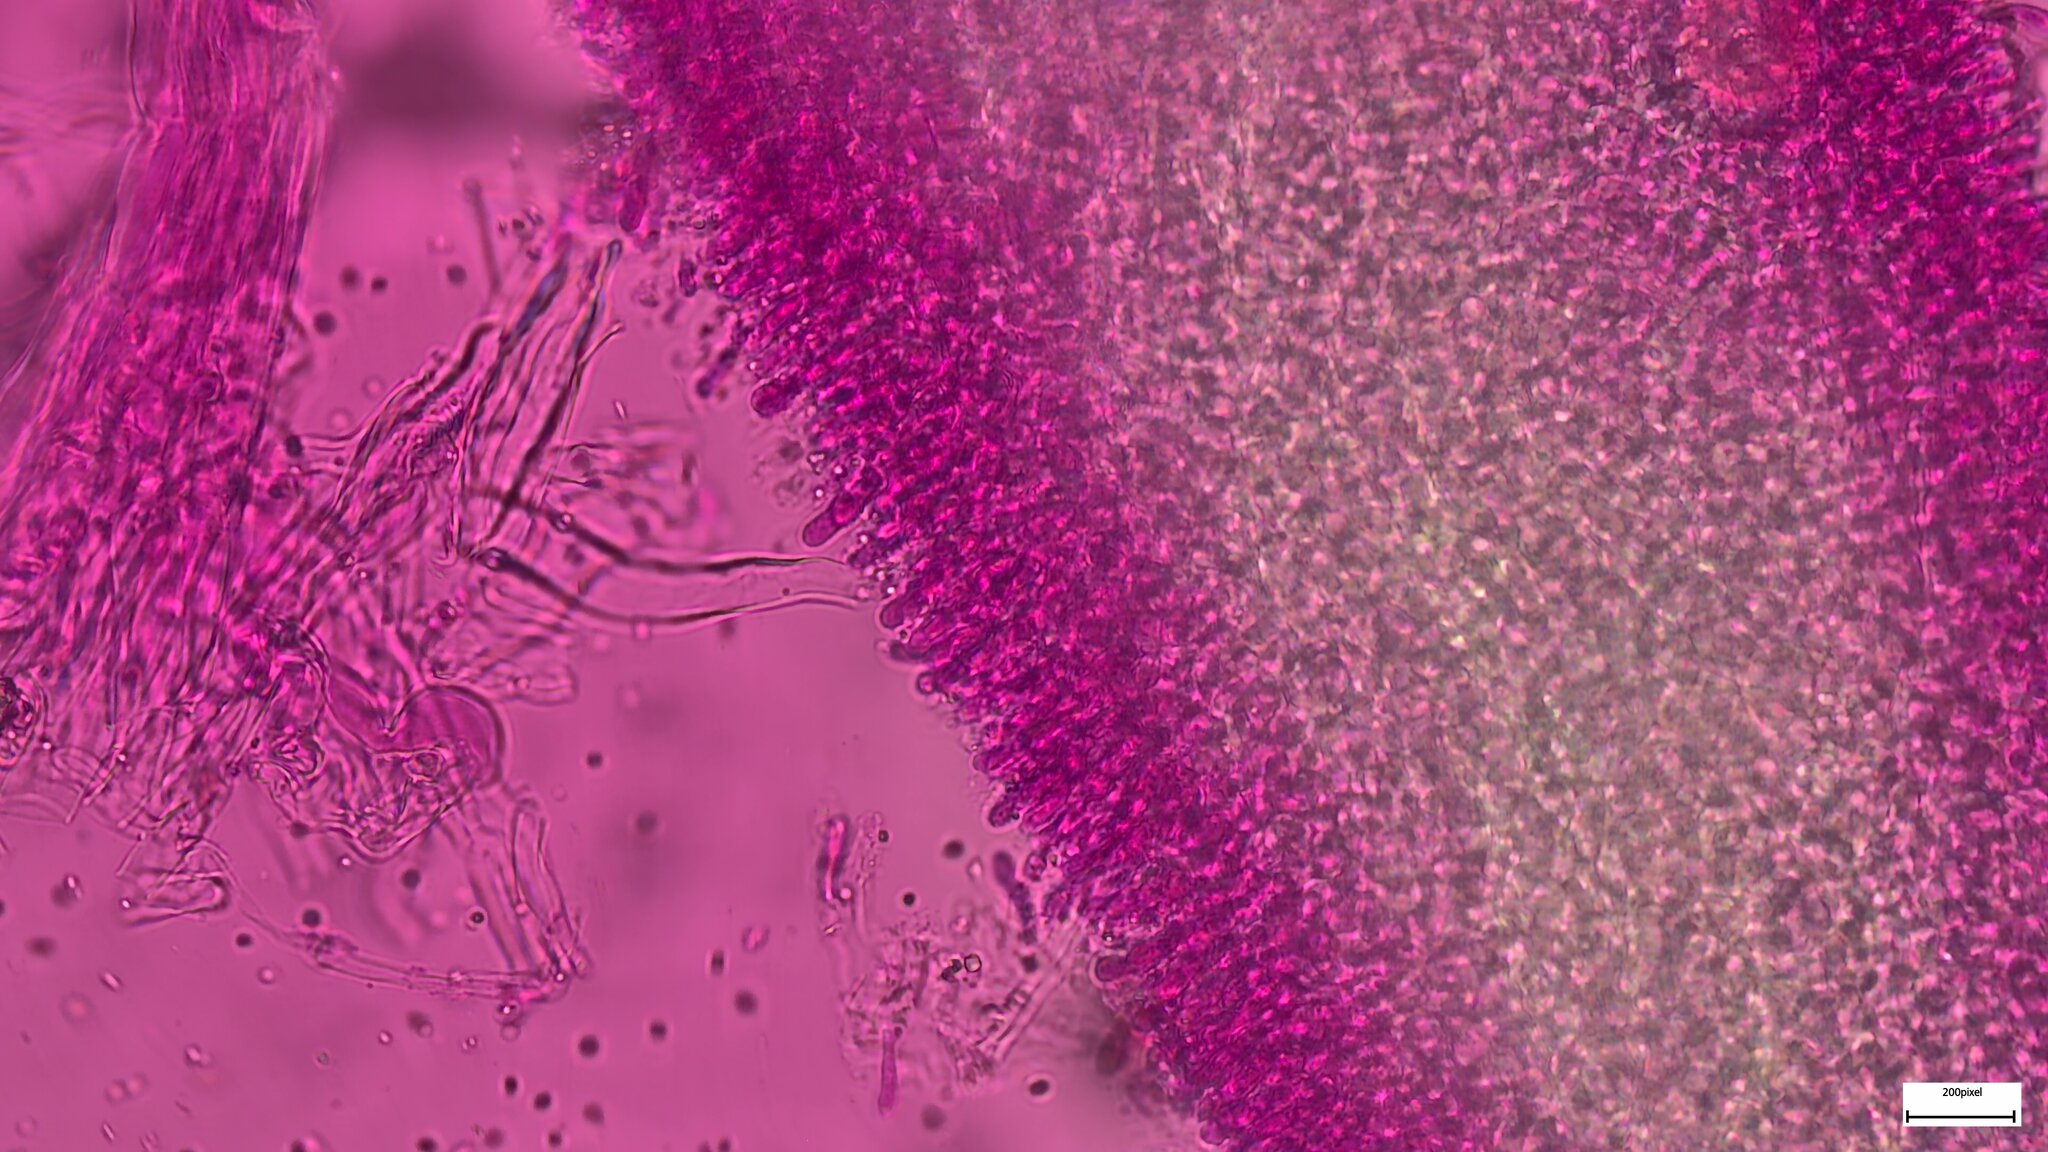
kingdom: Fungi
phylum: Basidiomycota
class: Agaricomycetes
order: Agaricales
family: Mycenaceae
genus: Mycena
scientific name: Mycena laevigata
